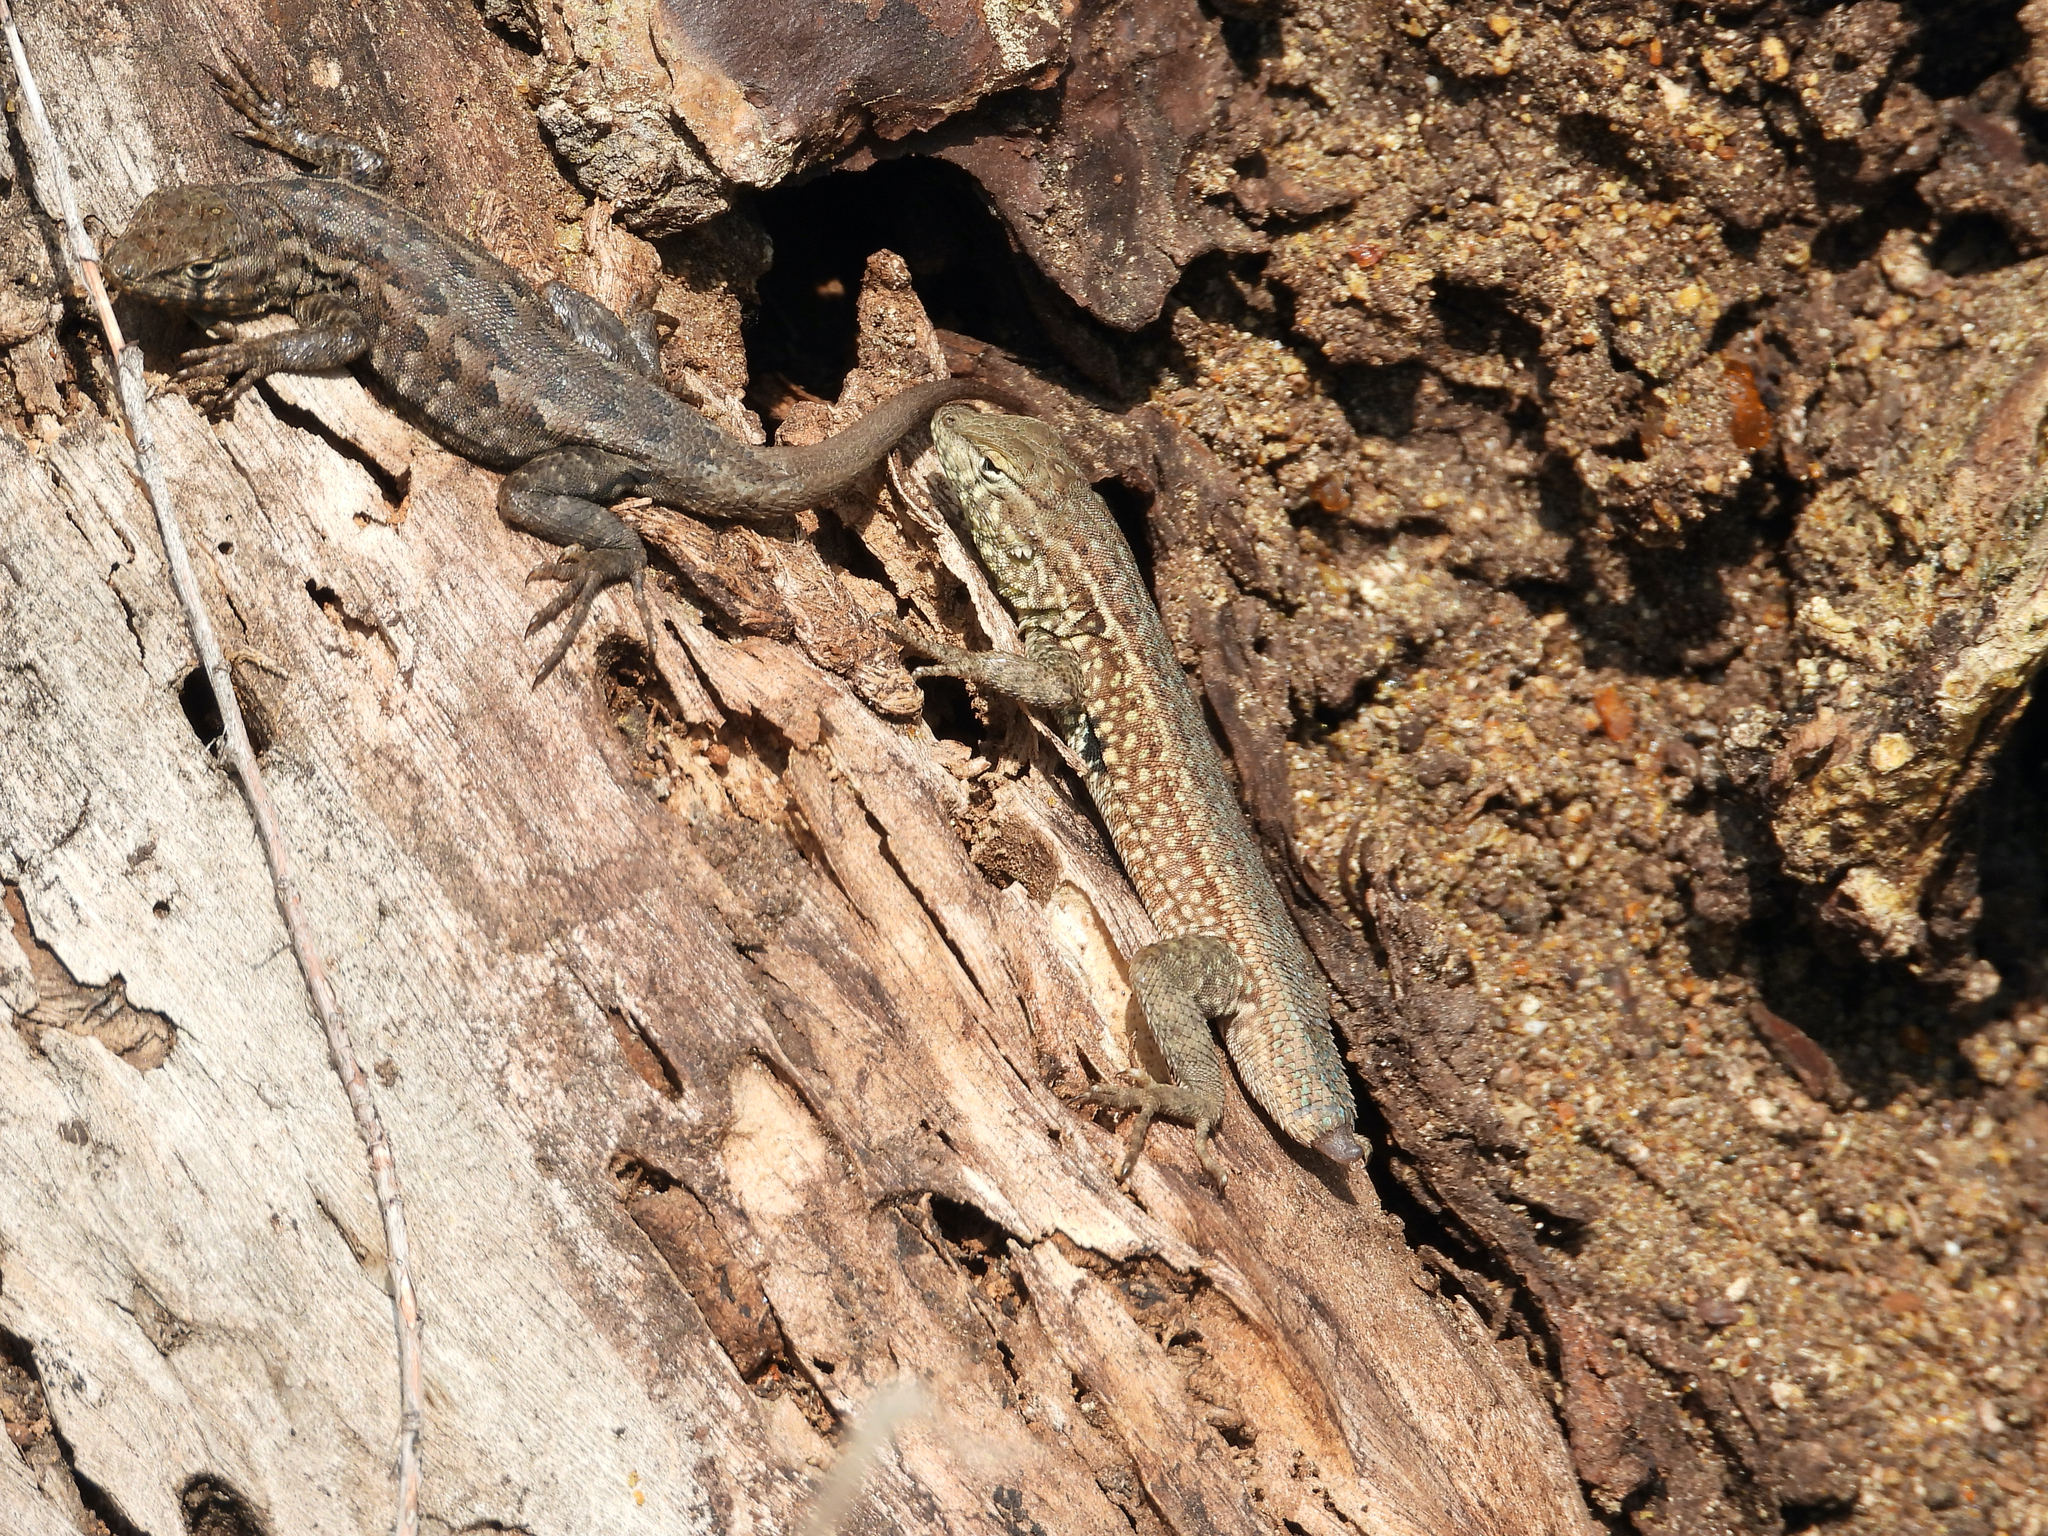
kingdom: Animalia
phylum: Chordata
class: Squamata
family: Phrynosomatidae
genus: Uta
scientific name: Uta stansburiana
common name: Side-blotched lizard
